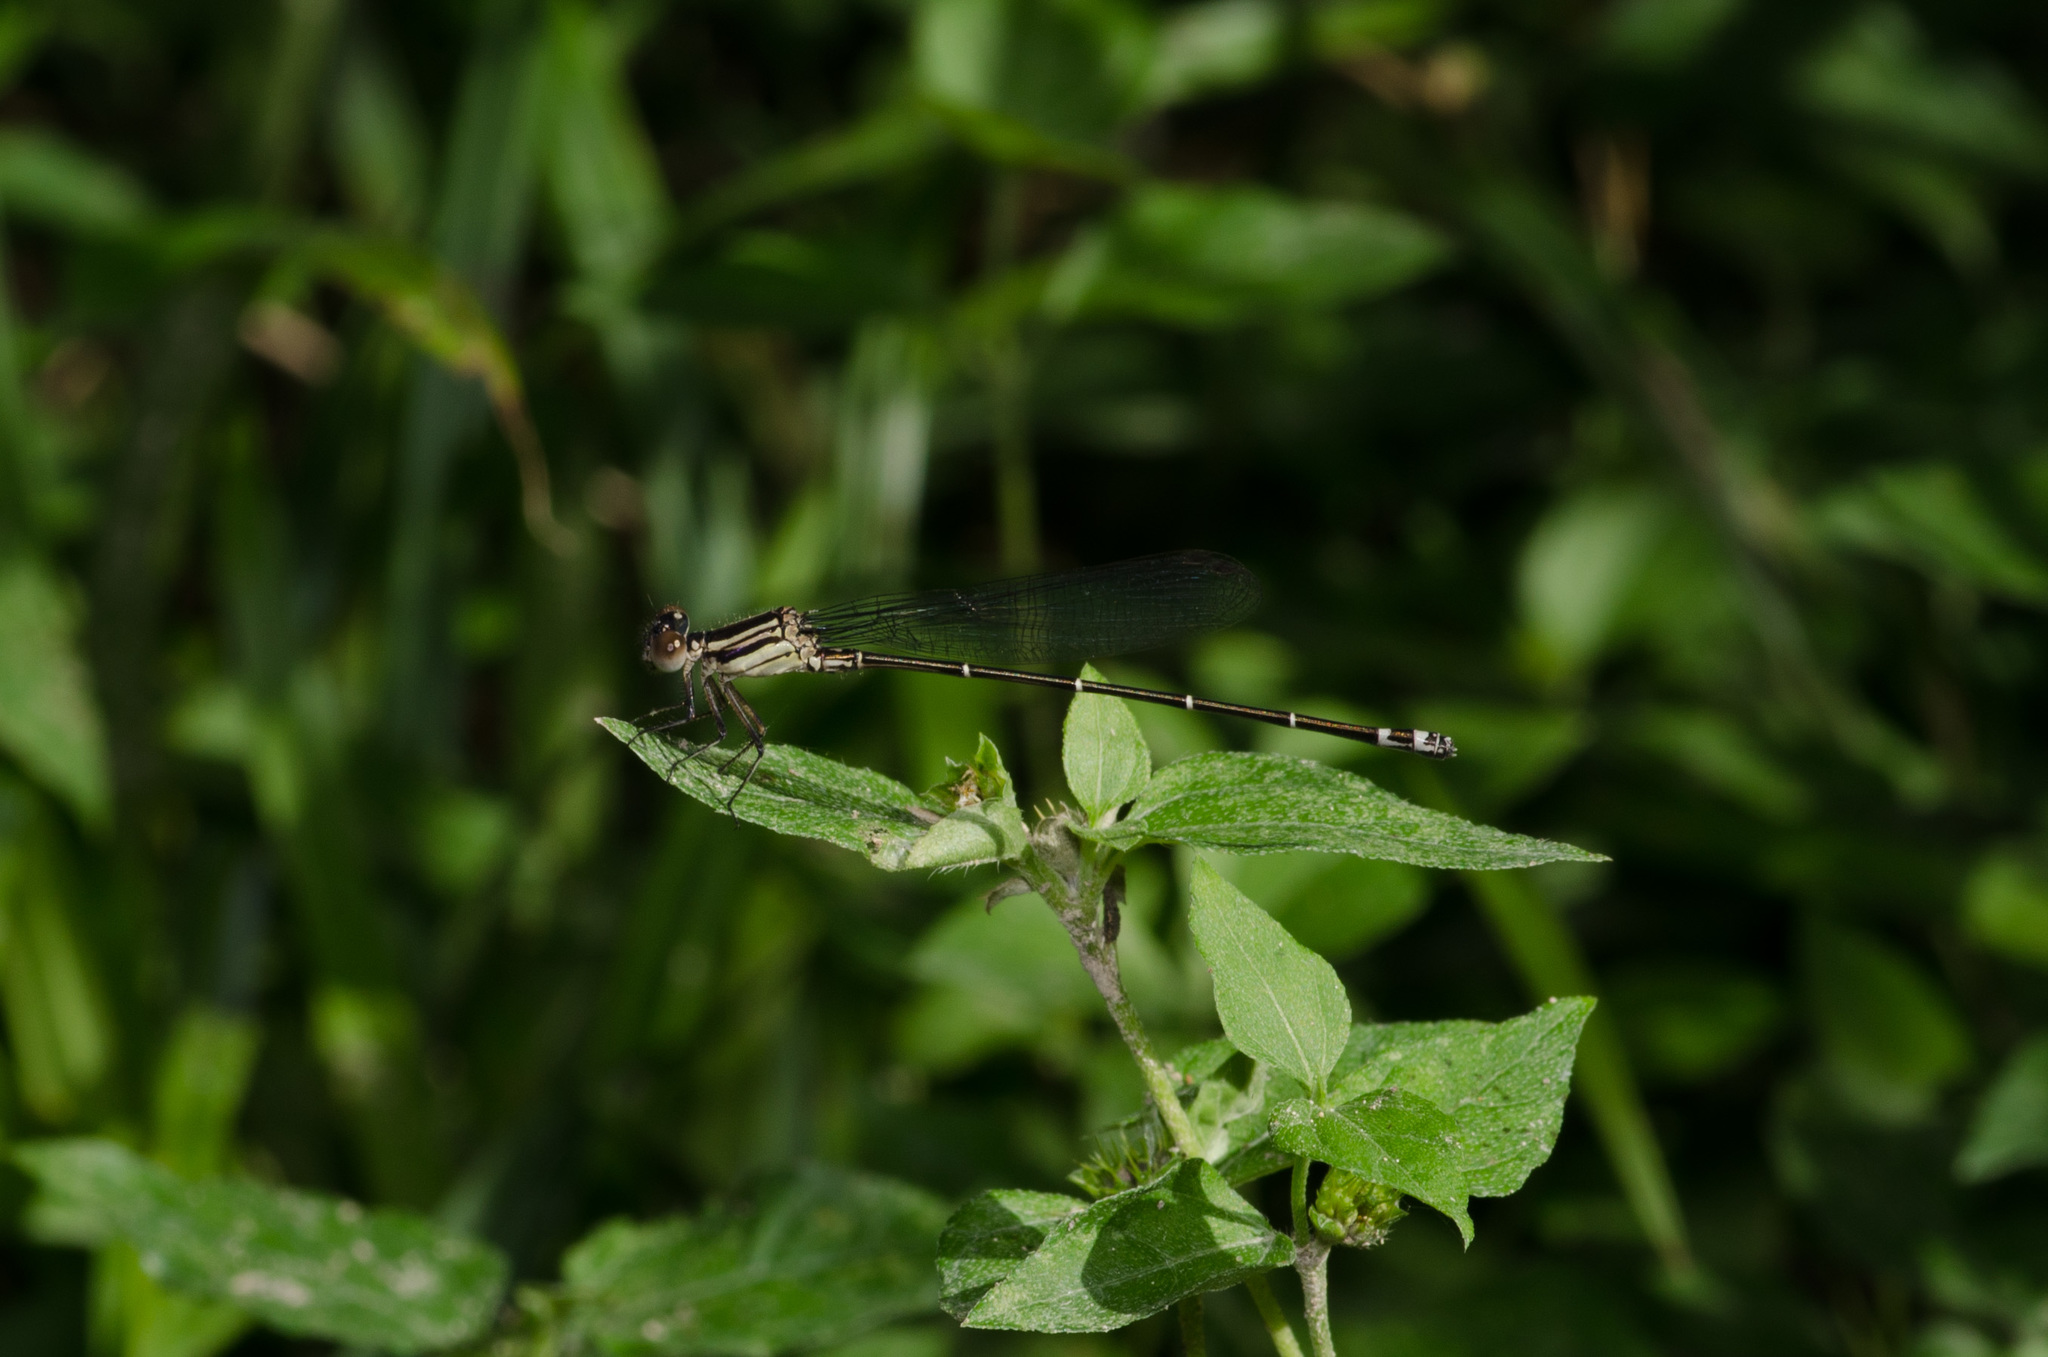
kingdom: Animalia
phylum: Arthropoda
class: Insecta
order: Odonata
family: Coenagrionidae
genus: Argia
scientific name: Argia translata
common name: Dusky dancer
